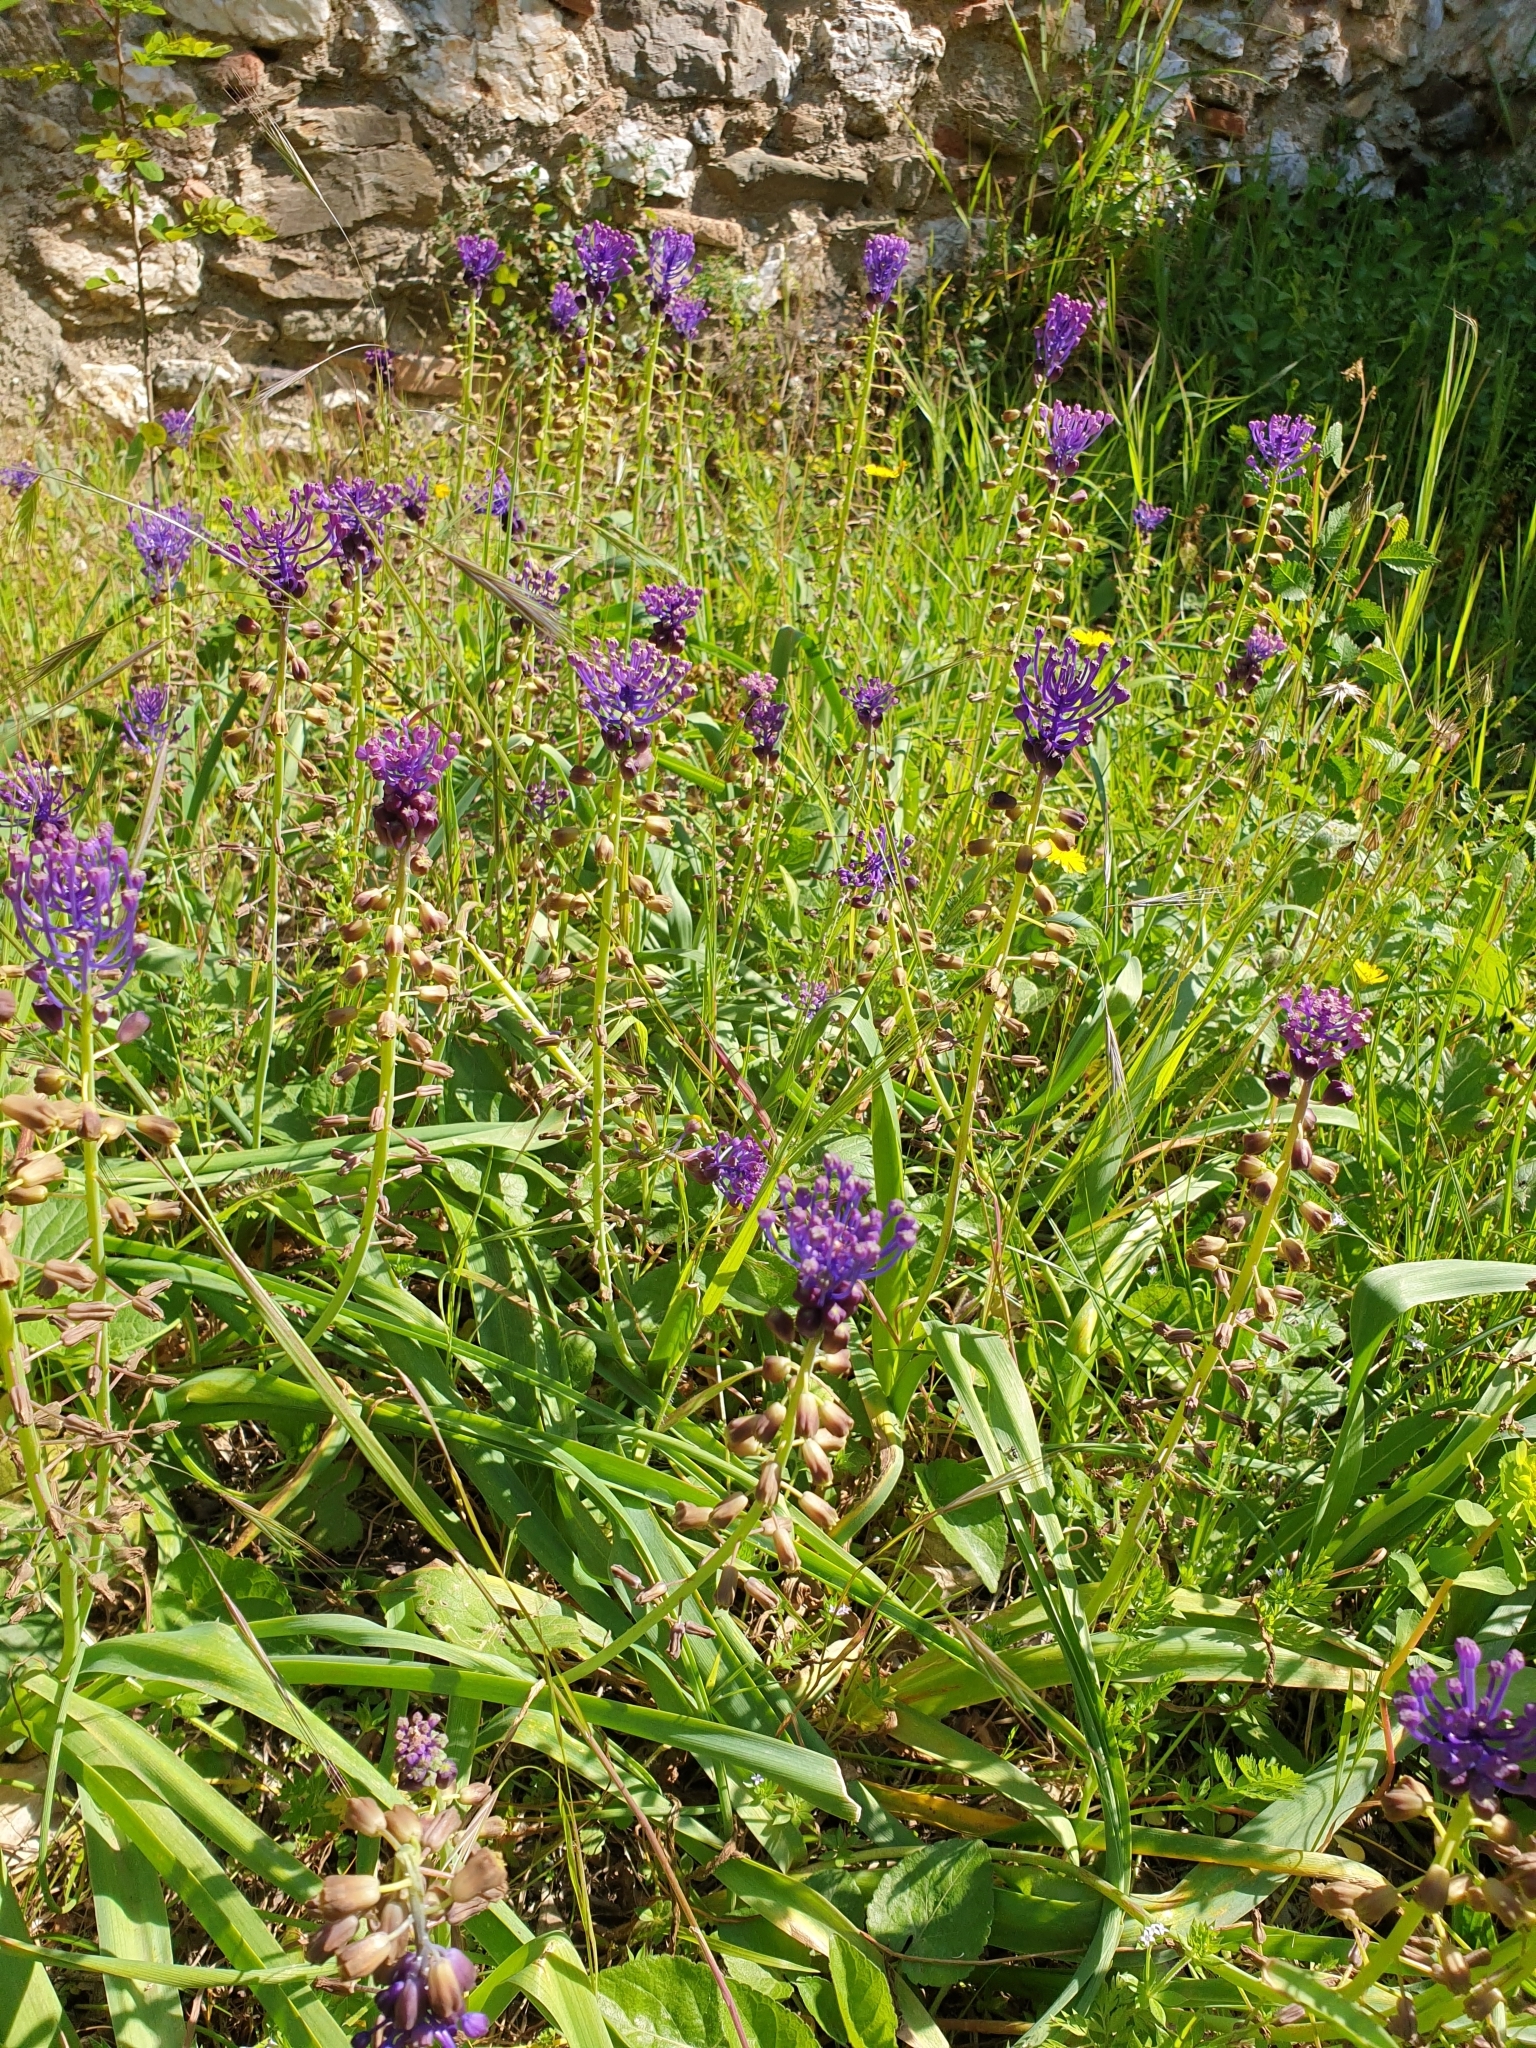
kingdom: Plantae
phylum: Tracheophyta
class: Liliopsida
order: Asparagales
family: Asparagaceae
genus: Muscari
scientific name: Muscari comosum
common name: Tassel hyacinth
